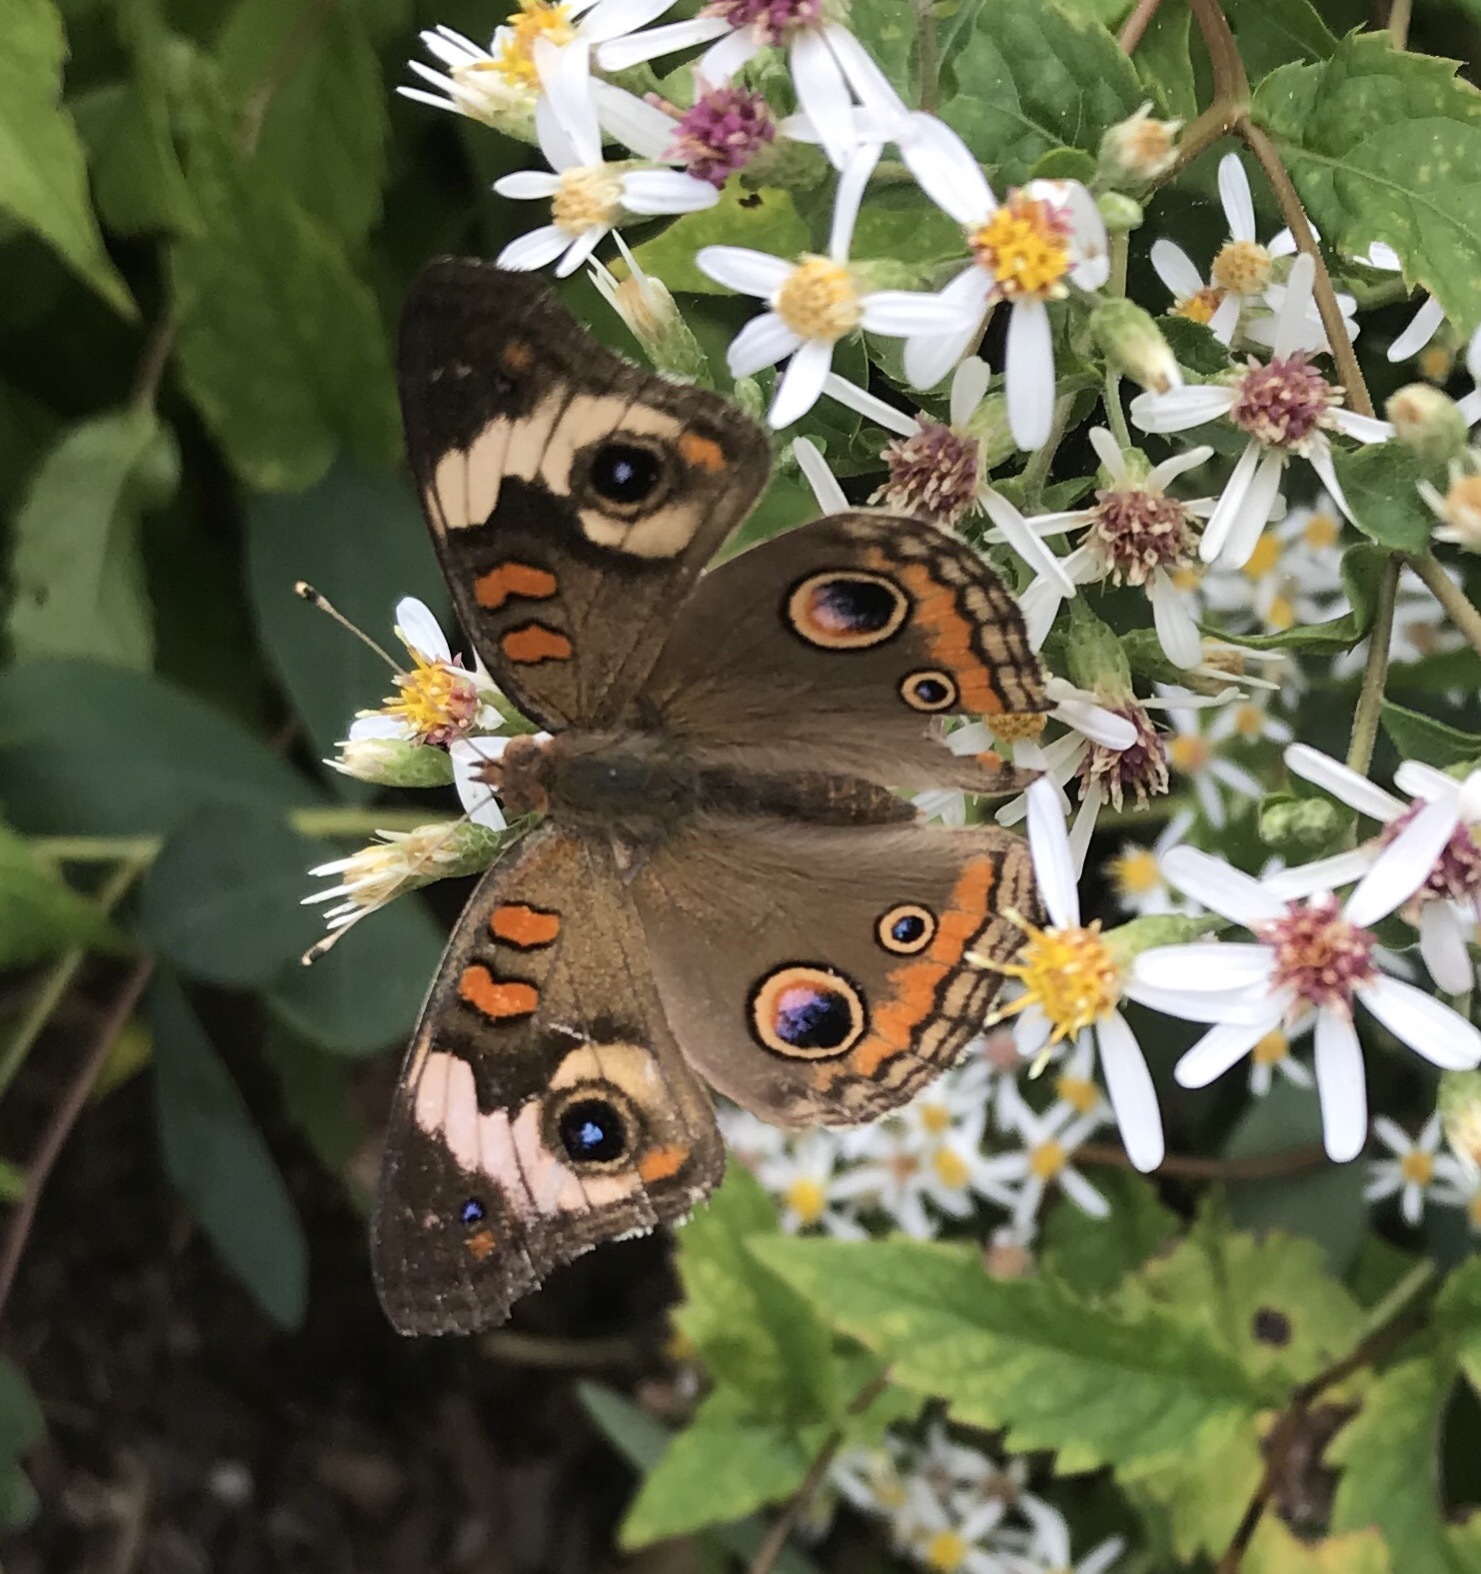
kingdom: Animalia
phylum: Arthropoda
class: Insecta
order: Lepidoptera
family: Nymphalidae
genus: Junonia
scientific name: Junonia coenia
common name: Common buckeye
